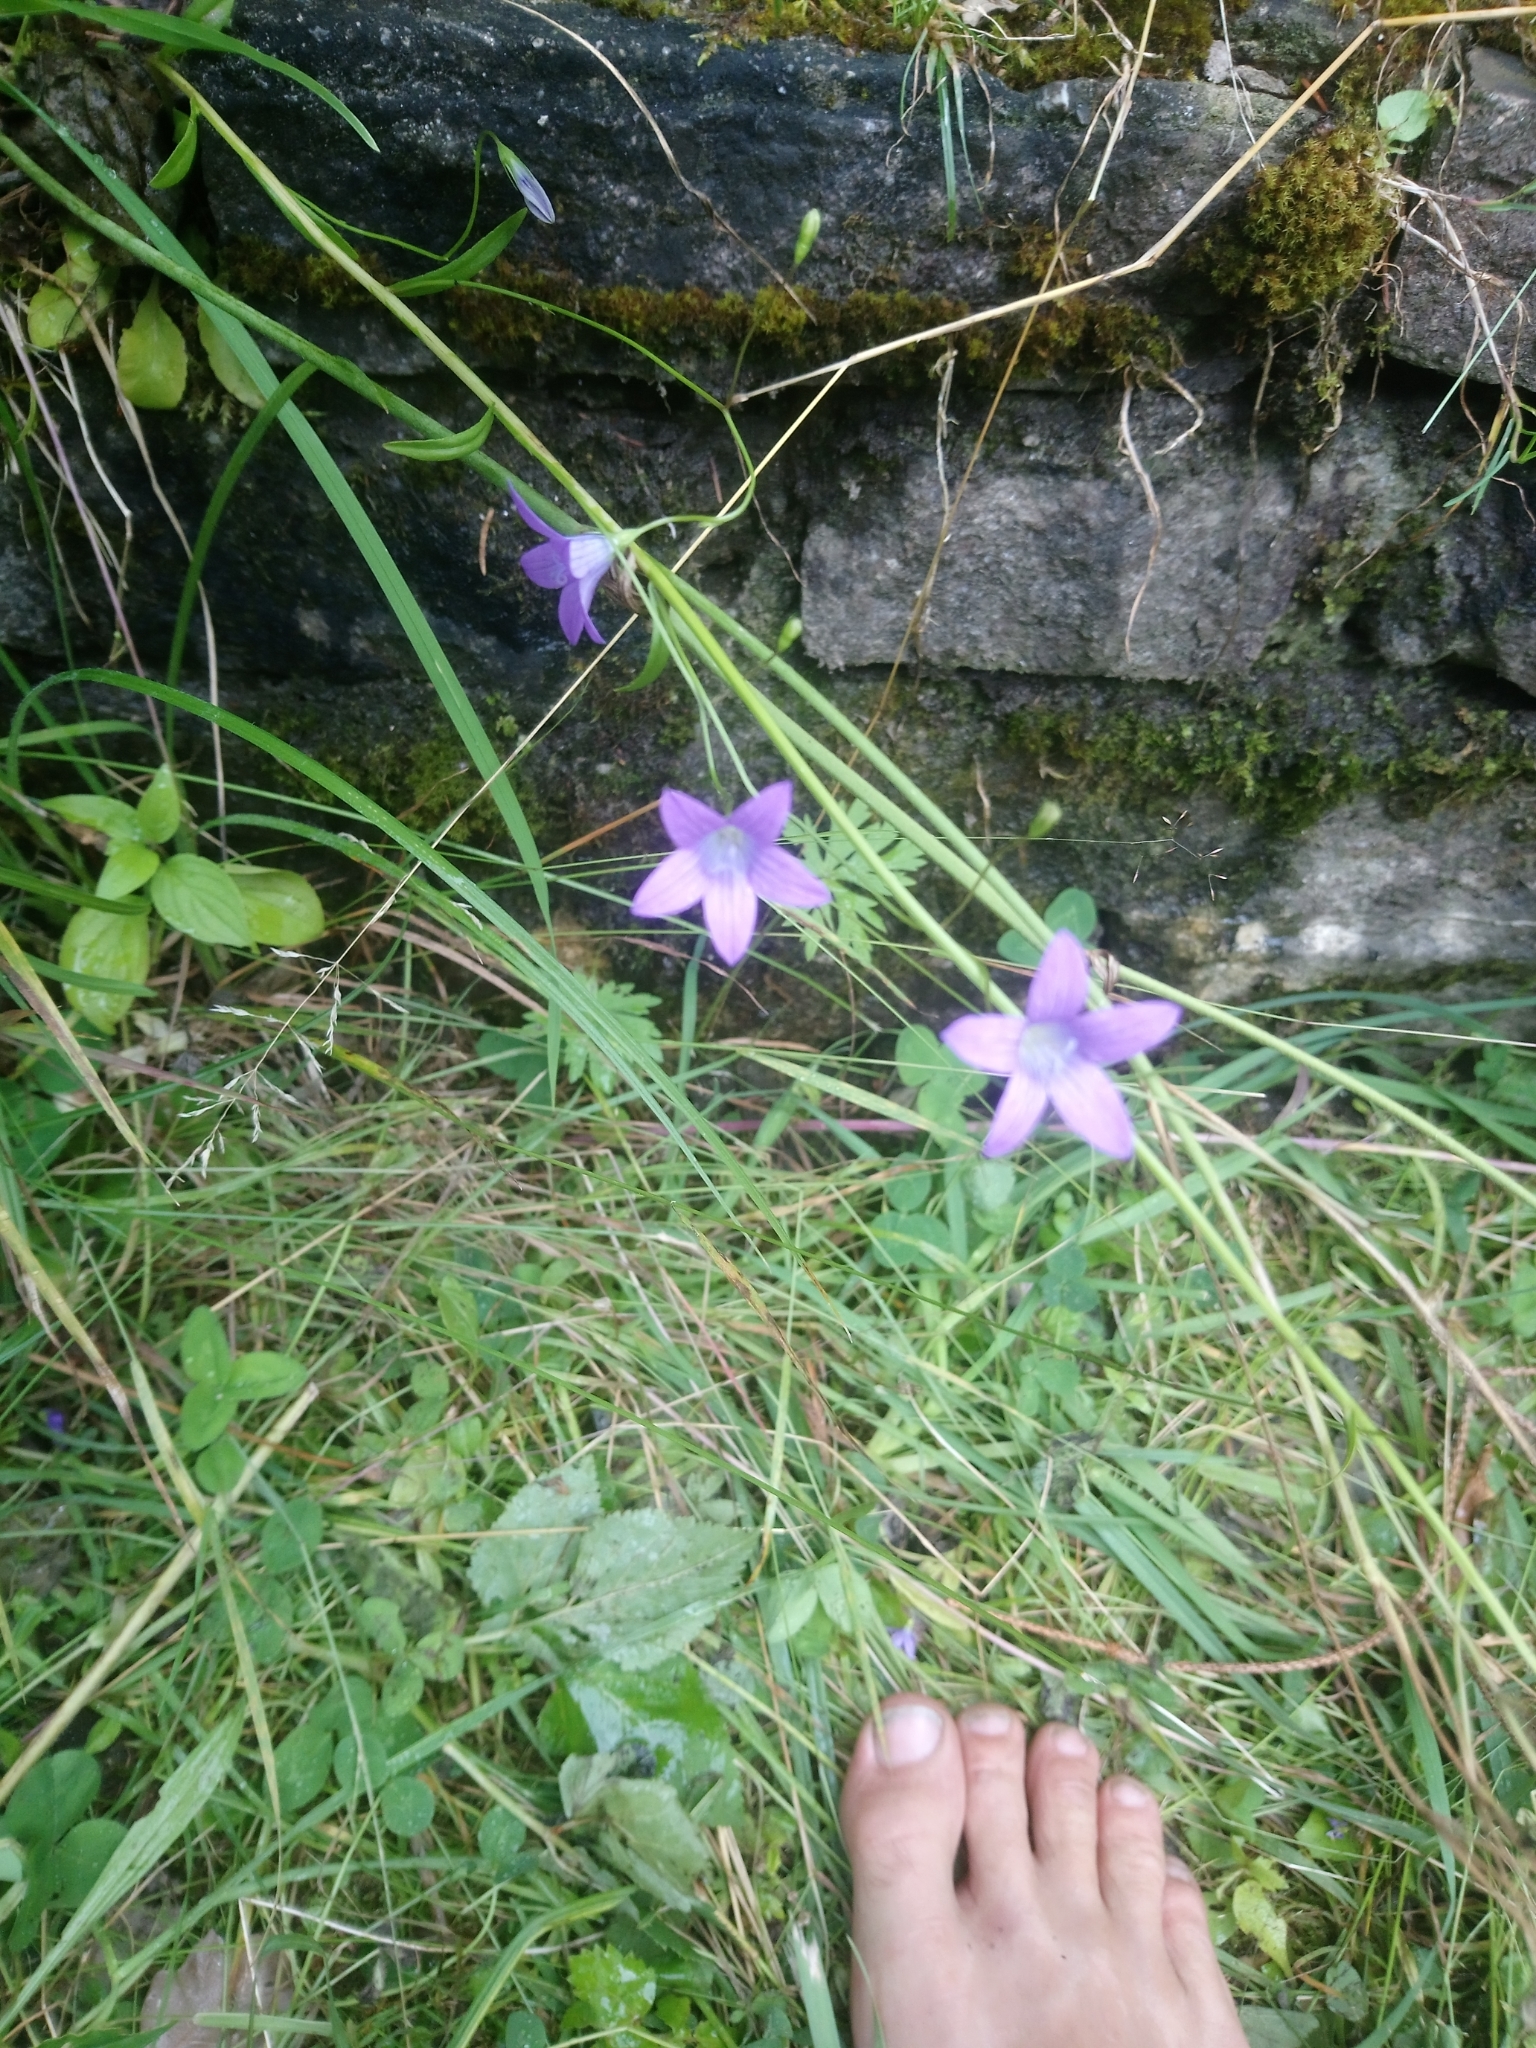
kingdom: Plantae
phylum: Tracheophyta
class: Magnoliopsida
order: Asterales
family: Campanulaceae
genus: Campanula
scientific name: Campanula patula
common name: Spreading bellflower
